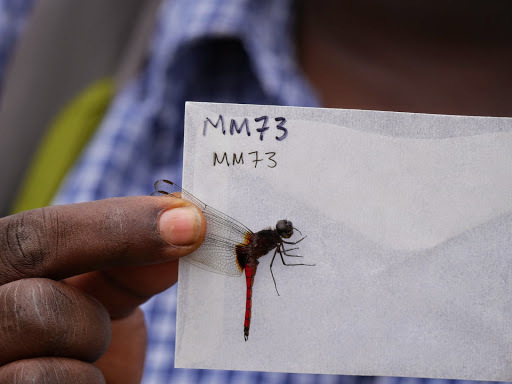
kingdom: Animalia
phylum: Arthropoda
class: Insecta
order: Odonata
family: Libellulidae
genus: Hadrothemis
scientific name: Hadrothemis defecta
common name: Scarlet jungleskimmer
